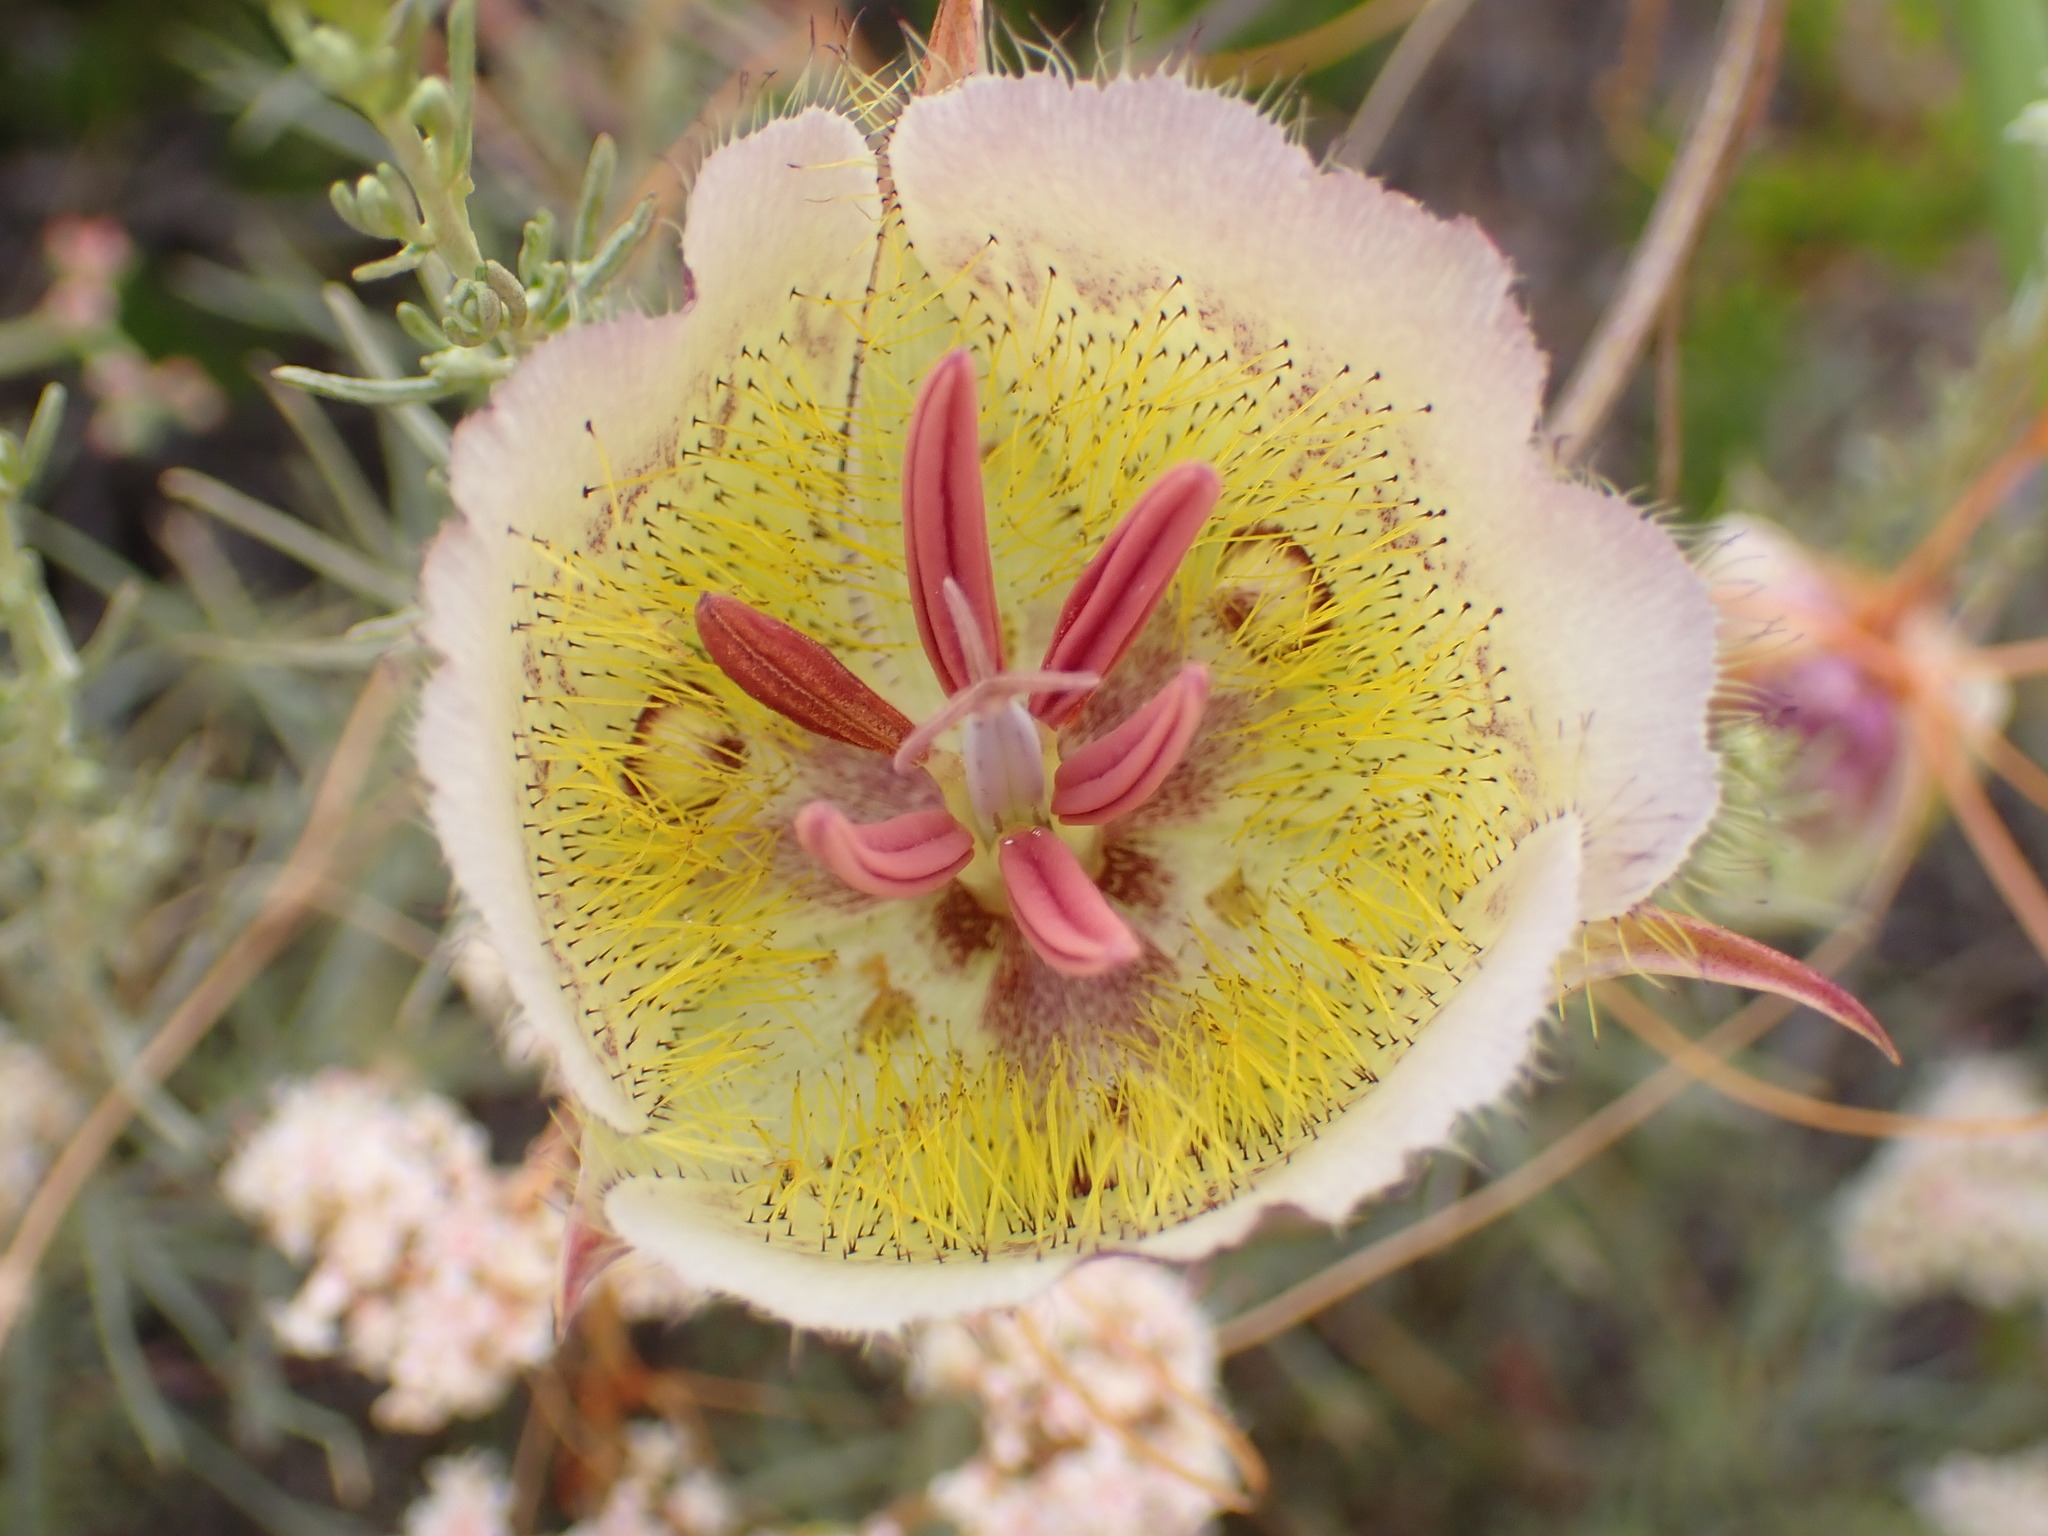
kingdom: Plantae
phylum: Tracheophyta
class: Liliopsida
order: Liliales
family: Liliaceae
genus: Calochortus
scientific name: Calochortus weedii
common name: Weed's mariposa-lily
